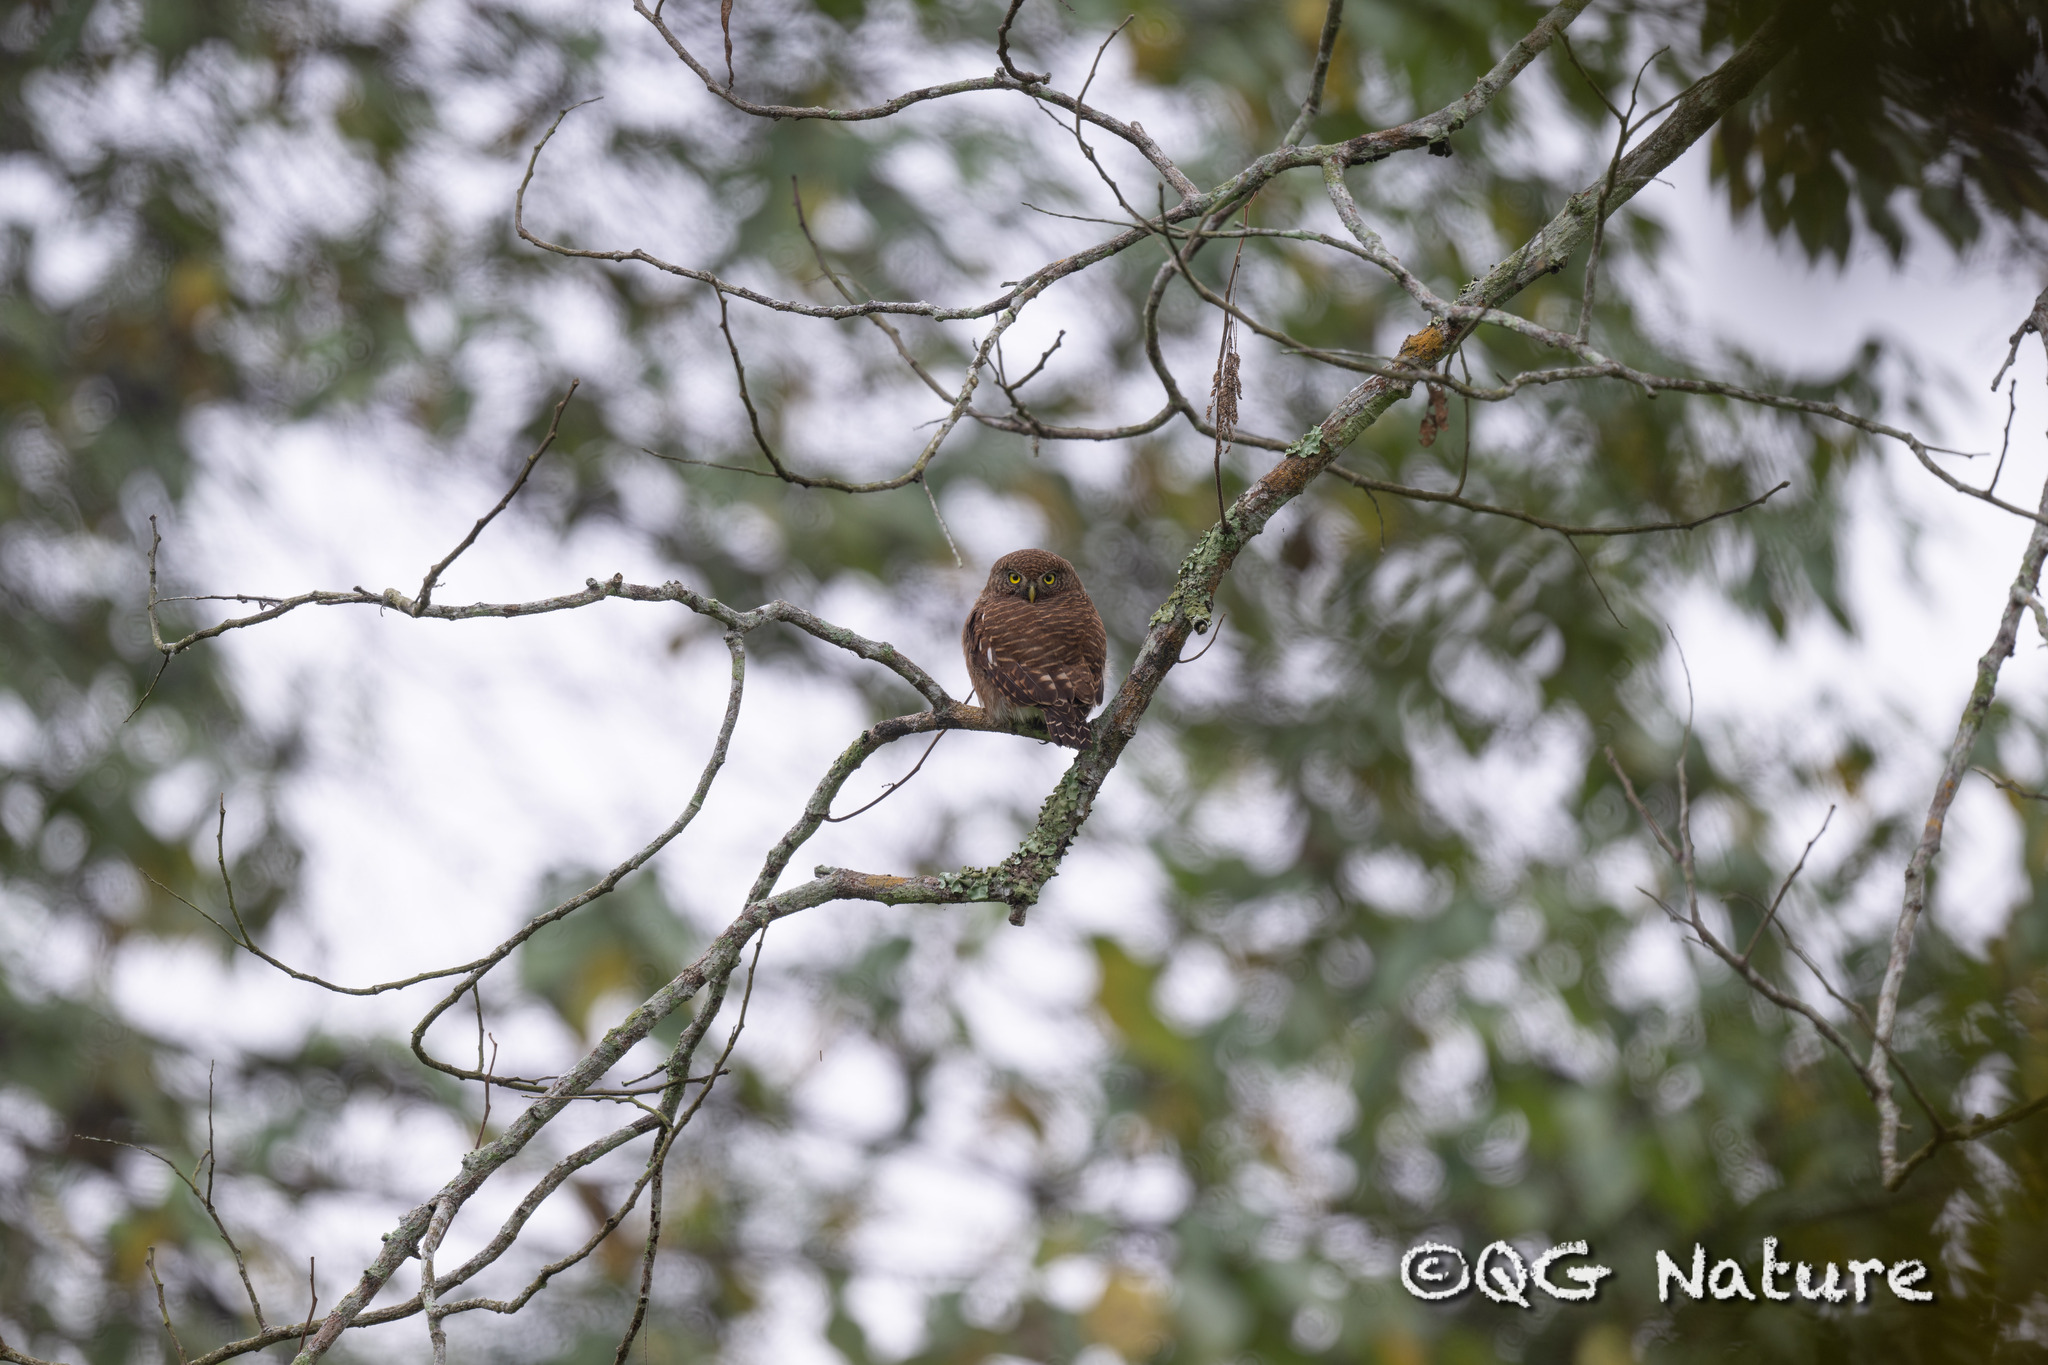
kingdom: Animalia
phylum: Chordata
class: Aves
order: Strigiformes
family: Strigidae
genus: Glaucidium
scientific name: Glaucidium cuculoides
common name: Asian barred owlet
